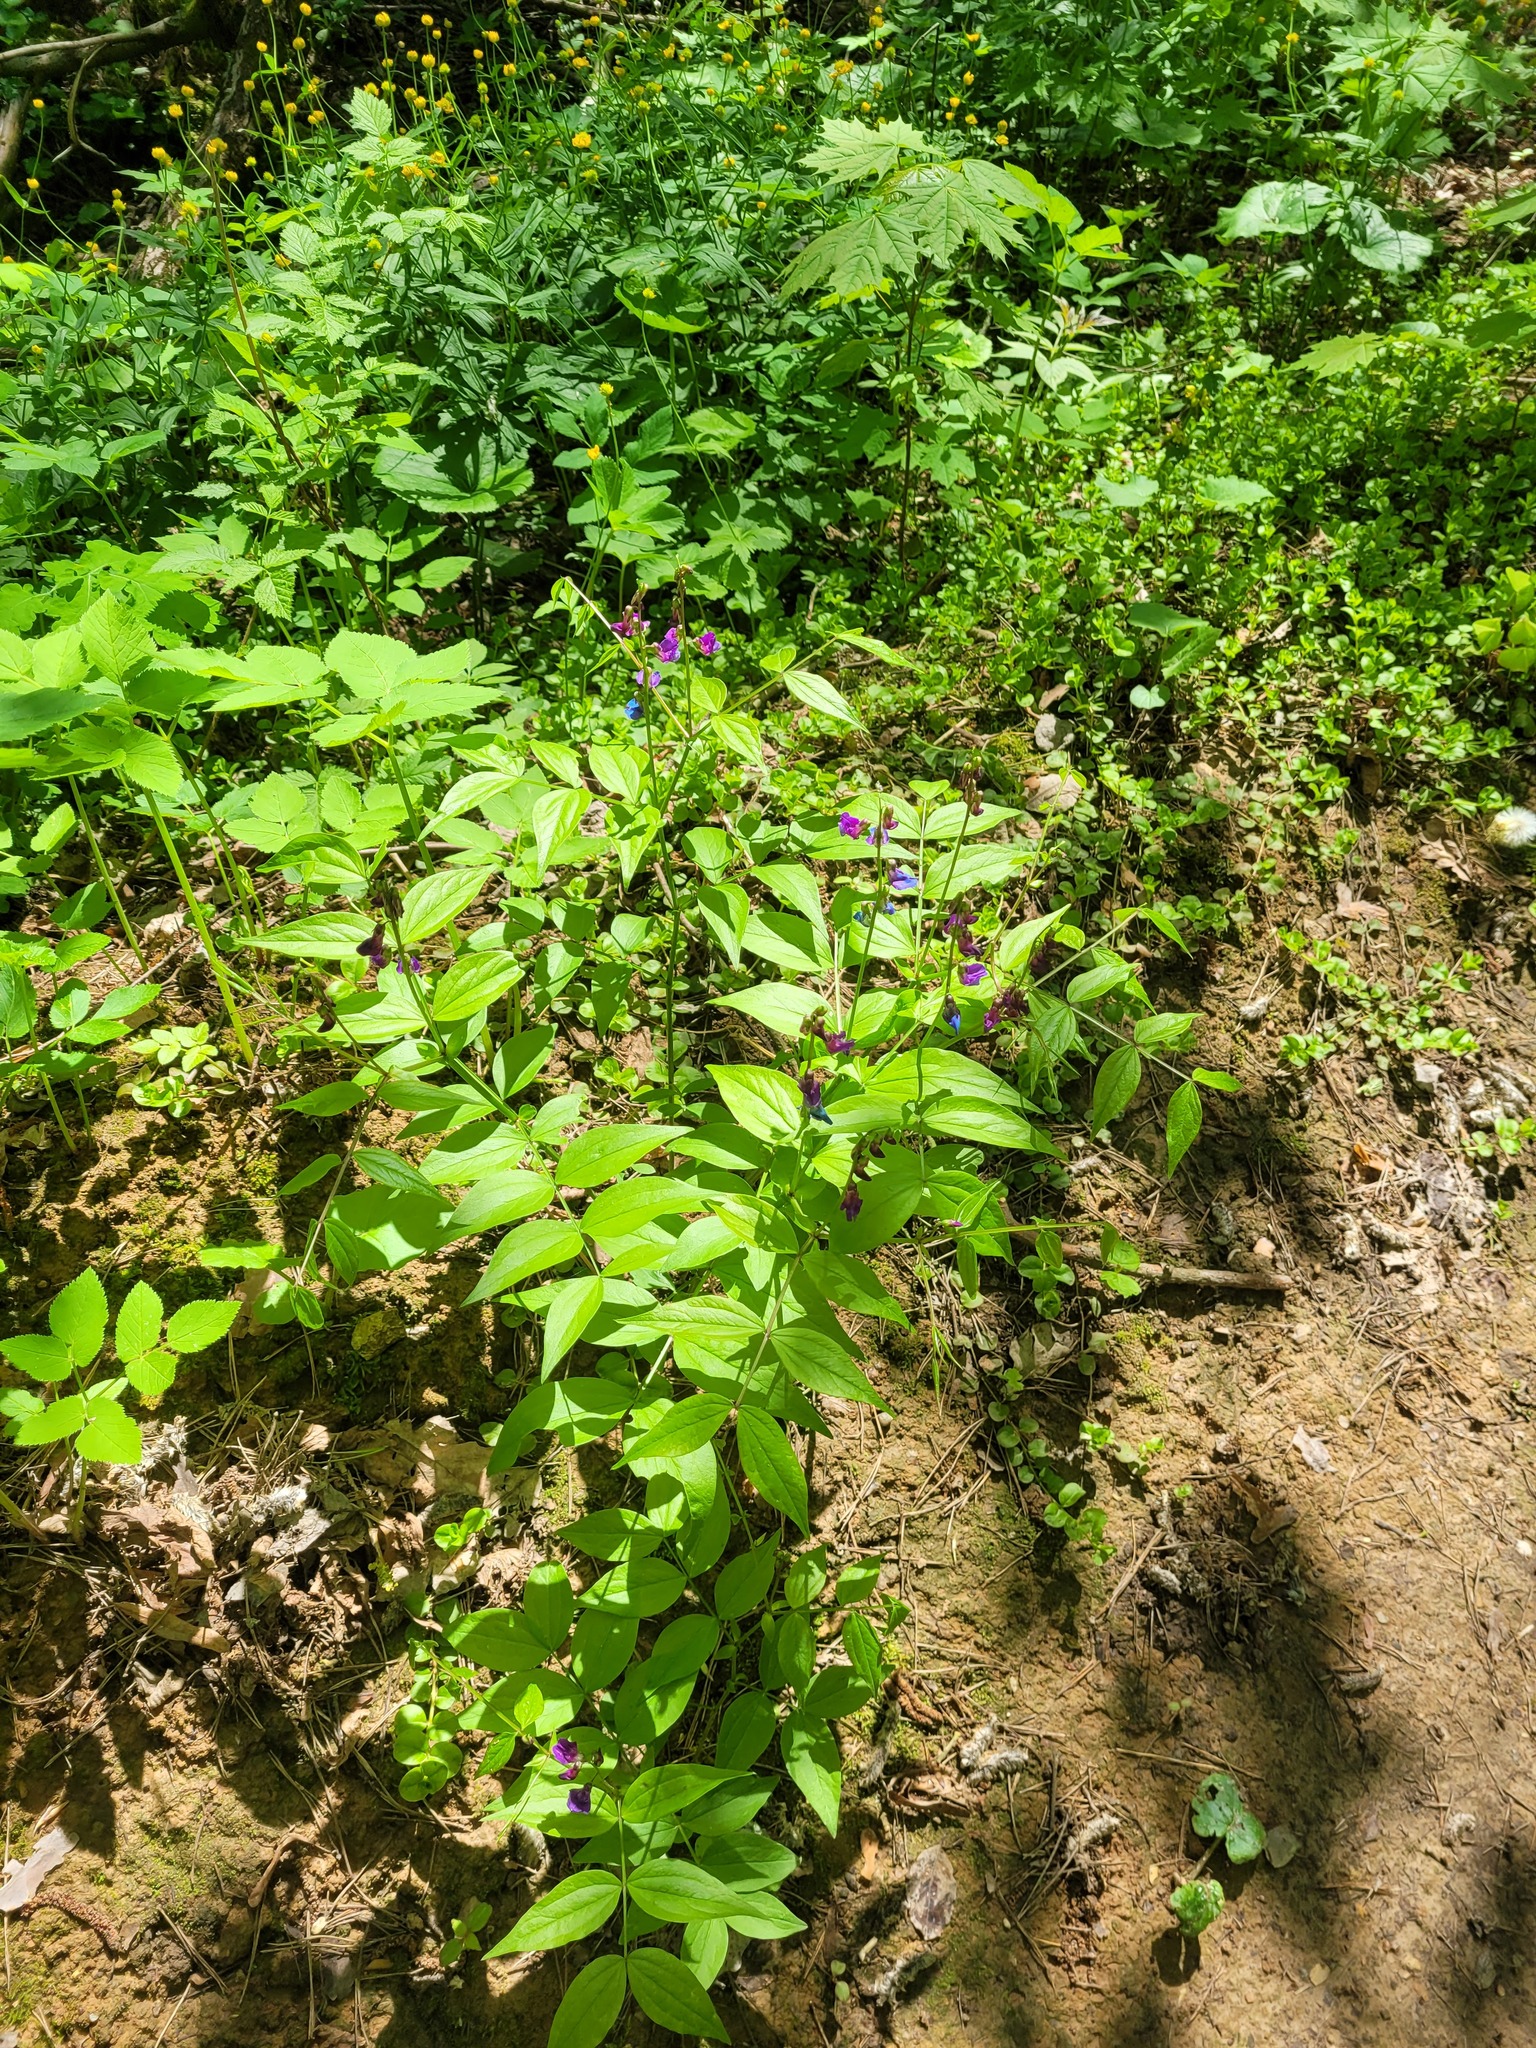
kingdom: Plantae
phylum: Tracheophyta
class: Magnoliopsida
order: Fabales
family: Fabaceae
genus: Lathyrus
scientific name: Lathyrus vernus
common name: Spring pea
